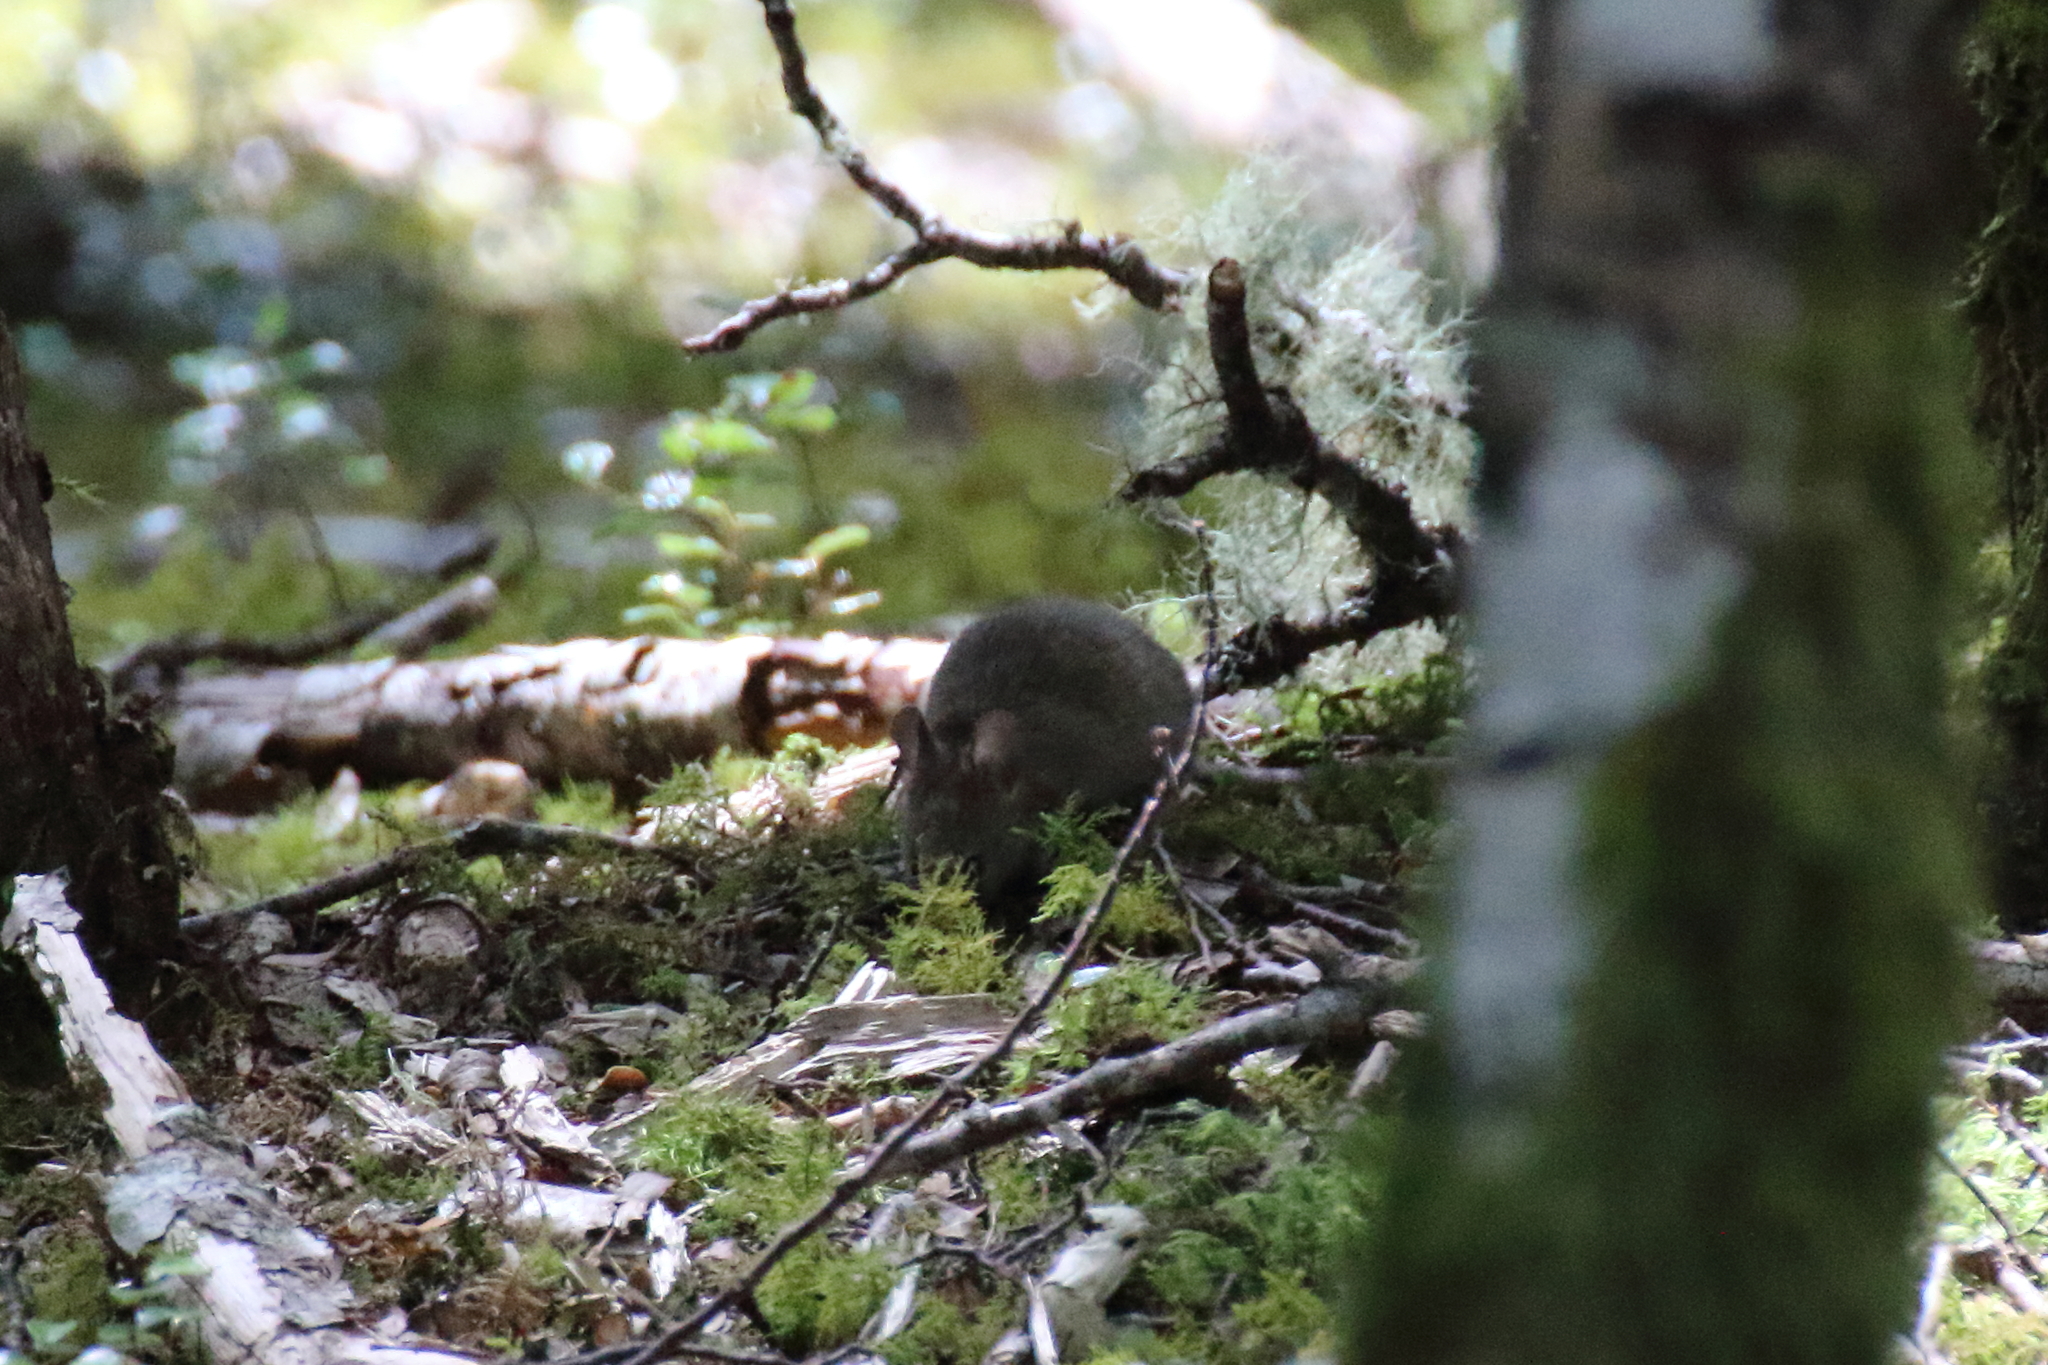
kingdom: Animalia
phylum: Chordata
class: Mammalia
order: Rodentia
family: Muridae
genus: Mus
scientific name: Mus musculus
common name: House mouse
